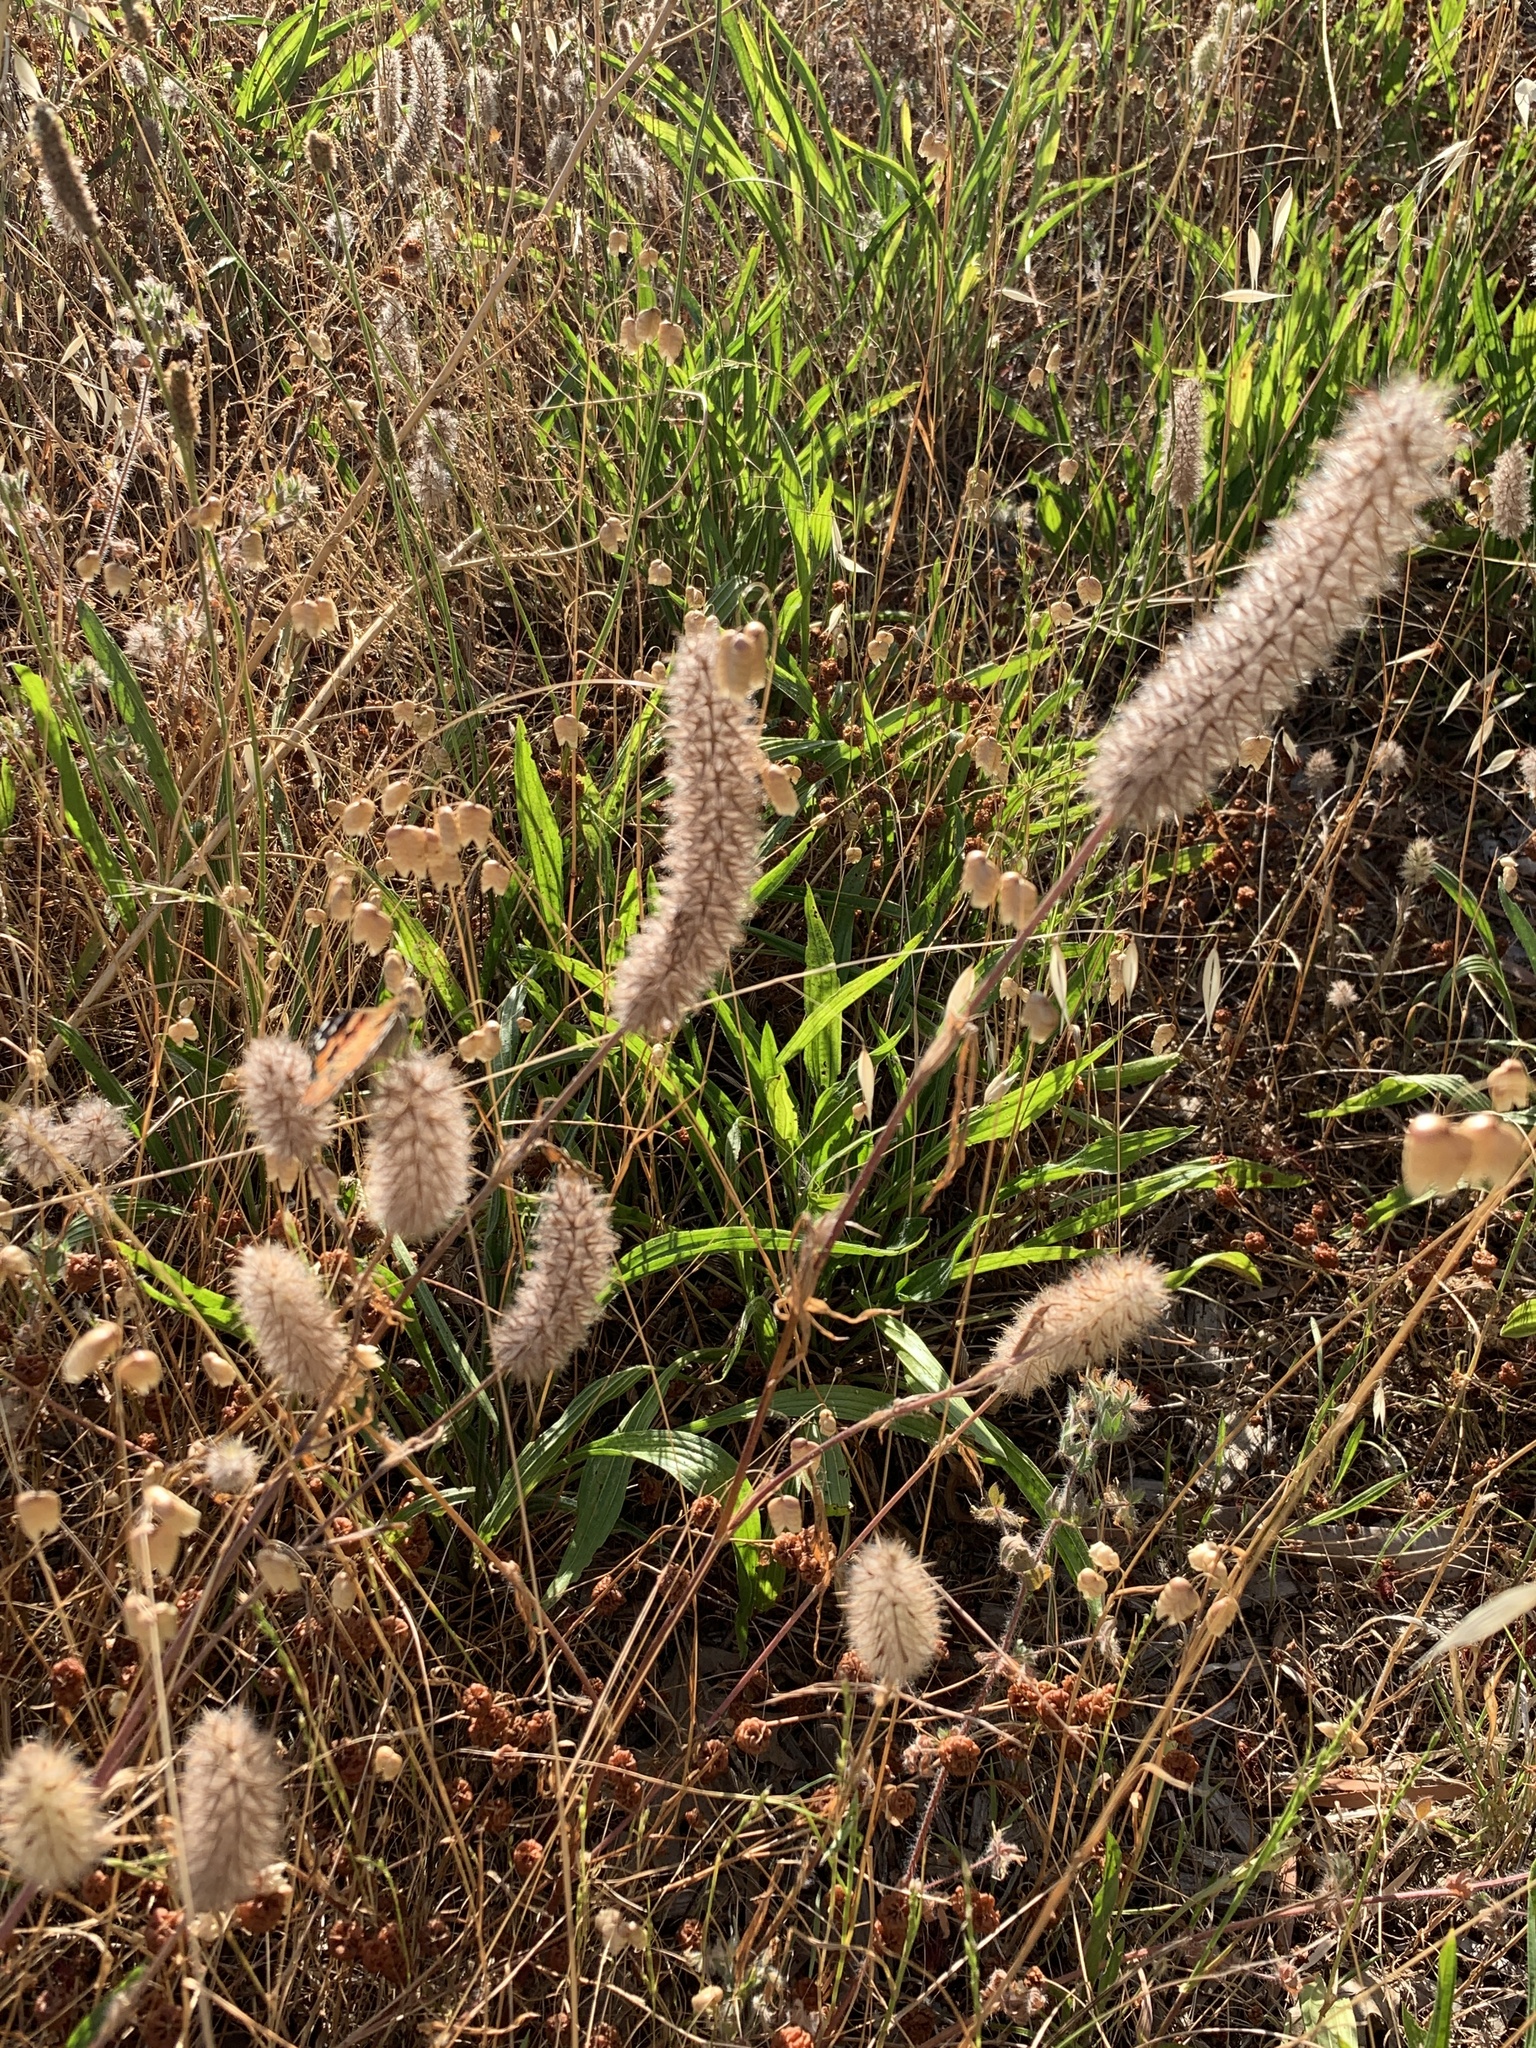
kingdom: Plantae
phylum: Tracheophyta
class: Magnoliopsida
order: Fabales
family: Fabaceae
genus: Trifolium
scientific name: Trifolium angustifolium
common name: Narrow clover
